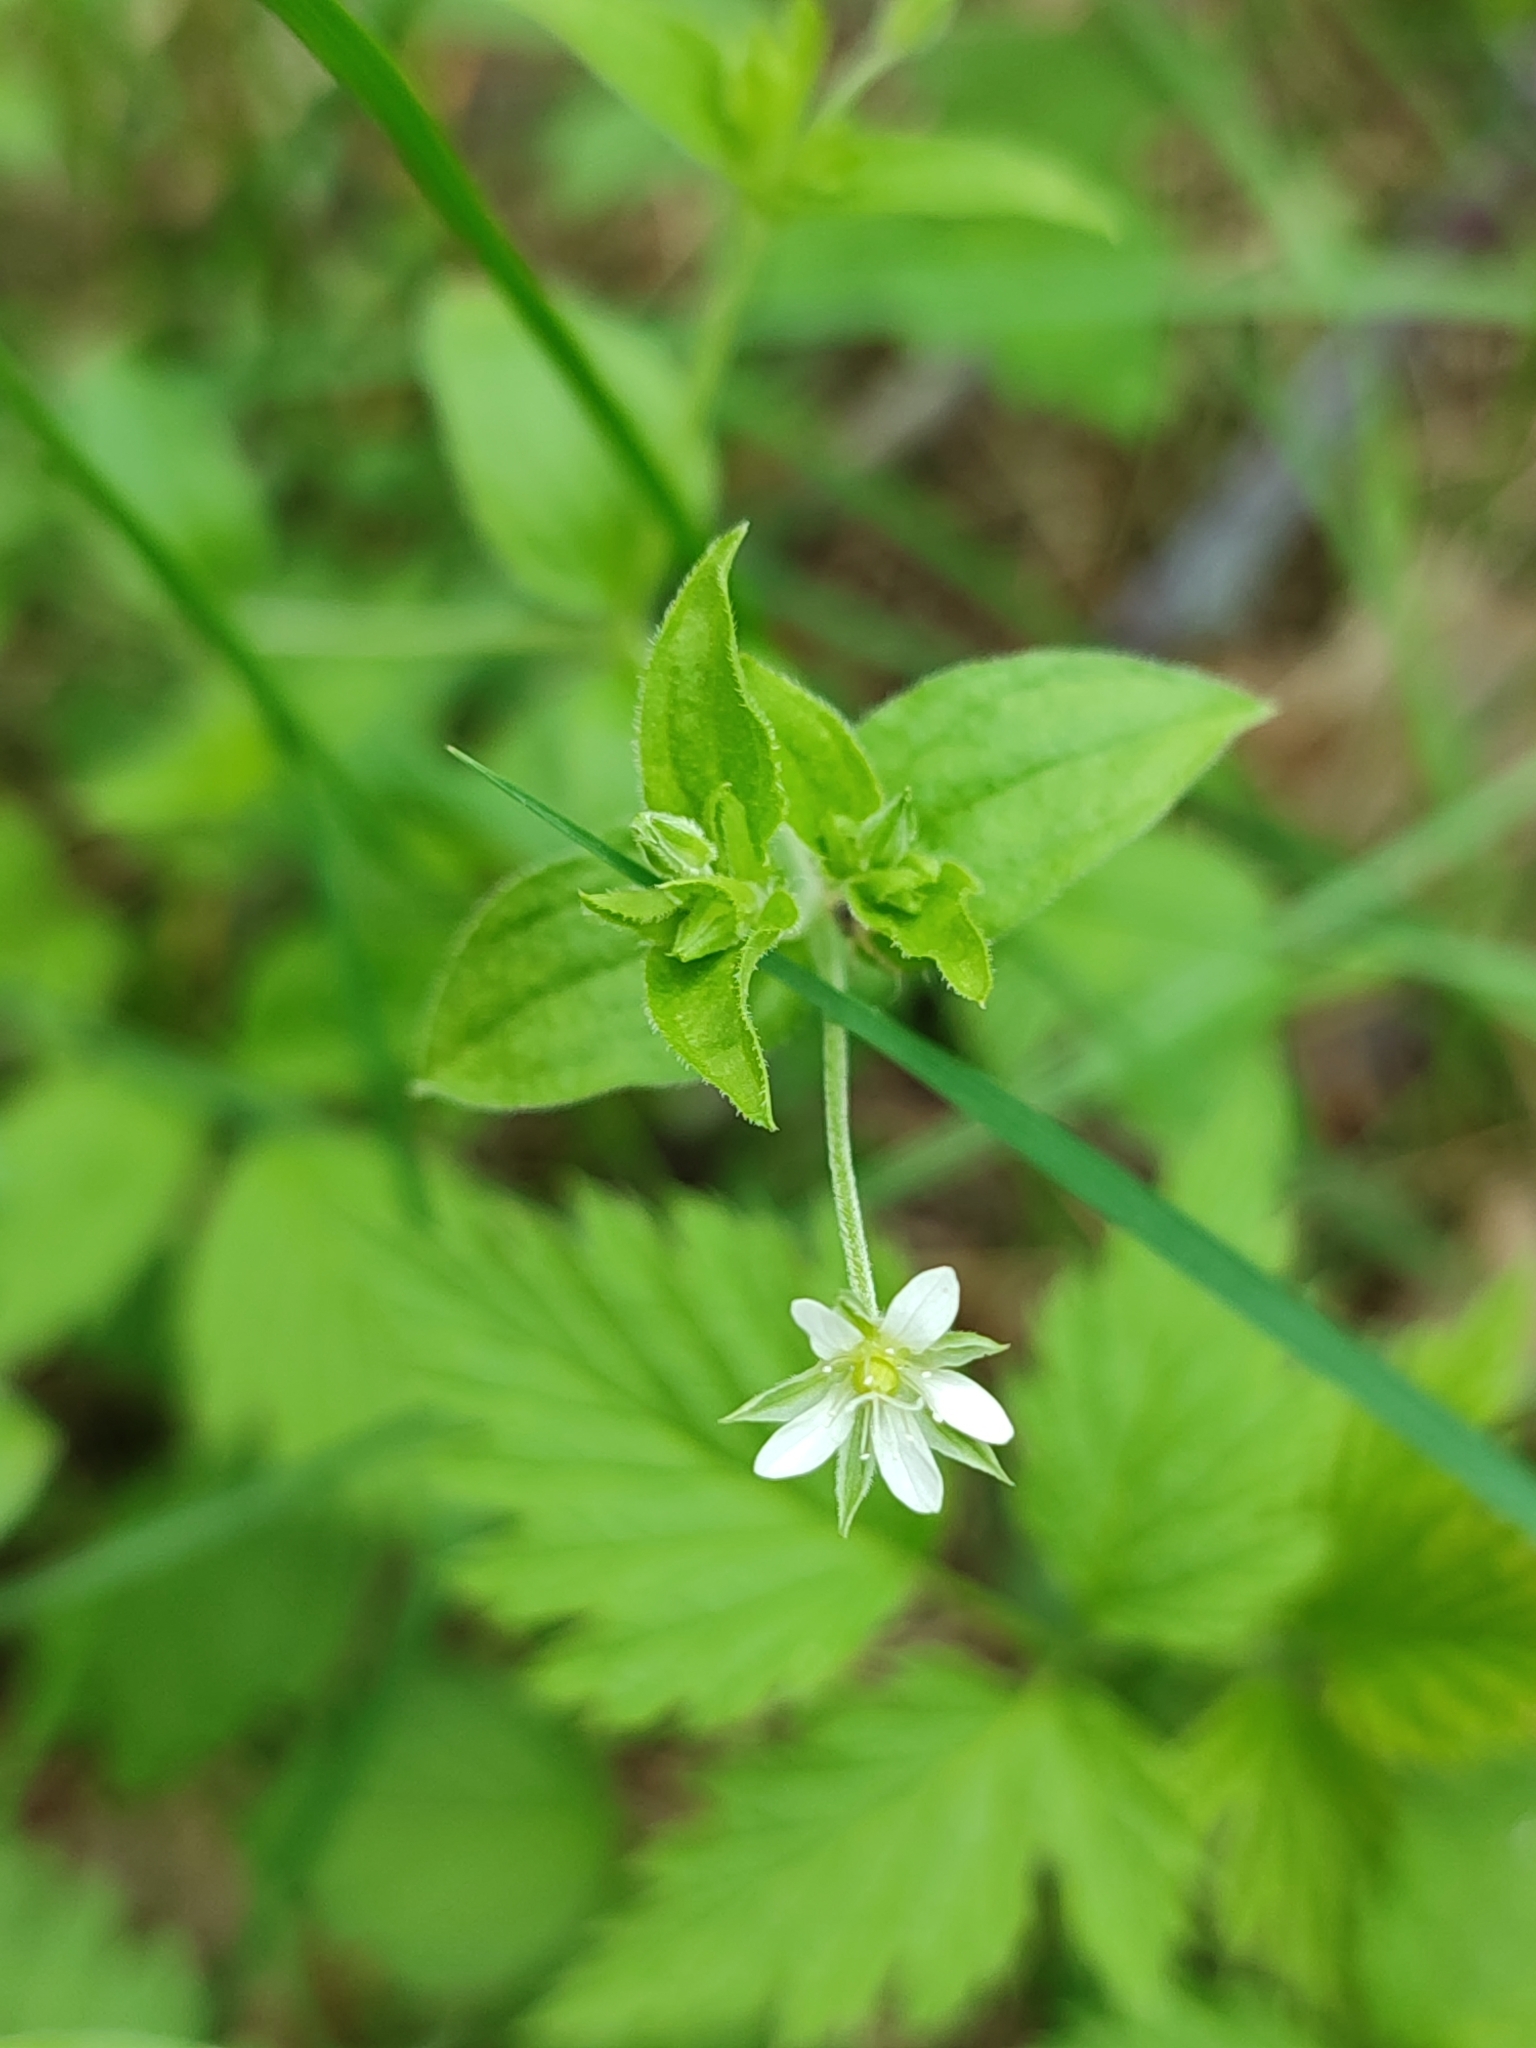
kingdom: Plantae
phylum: Tracheophyta
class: Magnoliopsida
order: Caryophyllales
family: Caryophyllaceae
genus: Moehringia
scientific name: Moehringia trinervia
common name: Three-nerved sandwort
